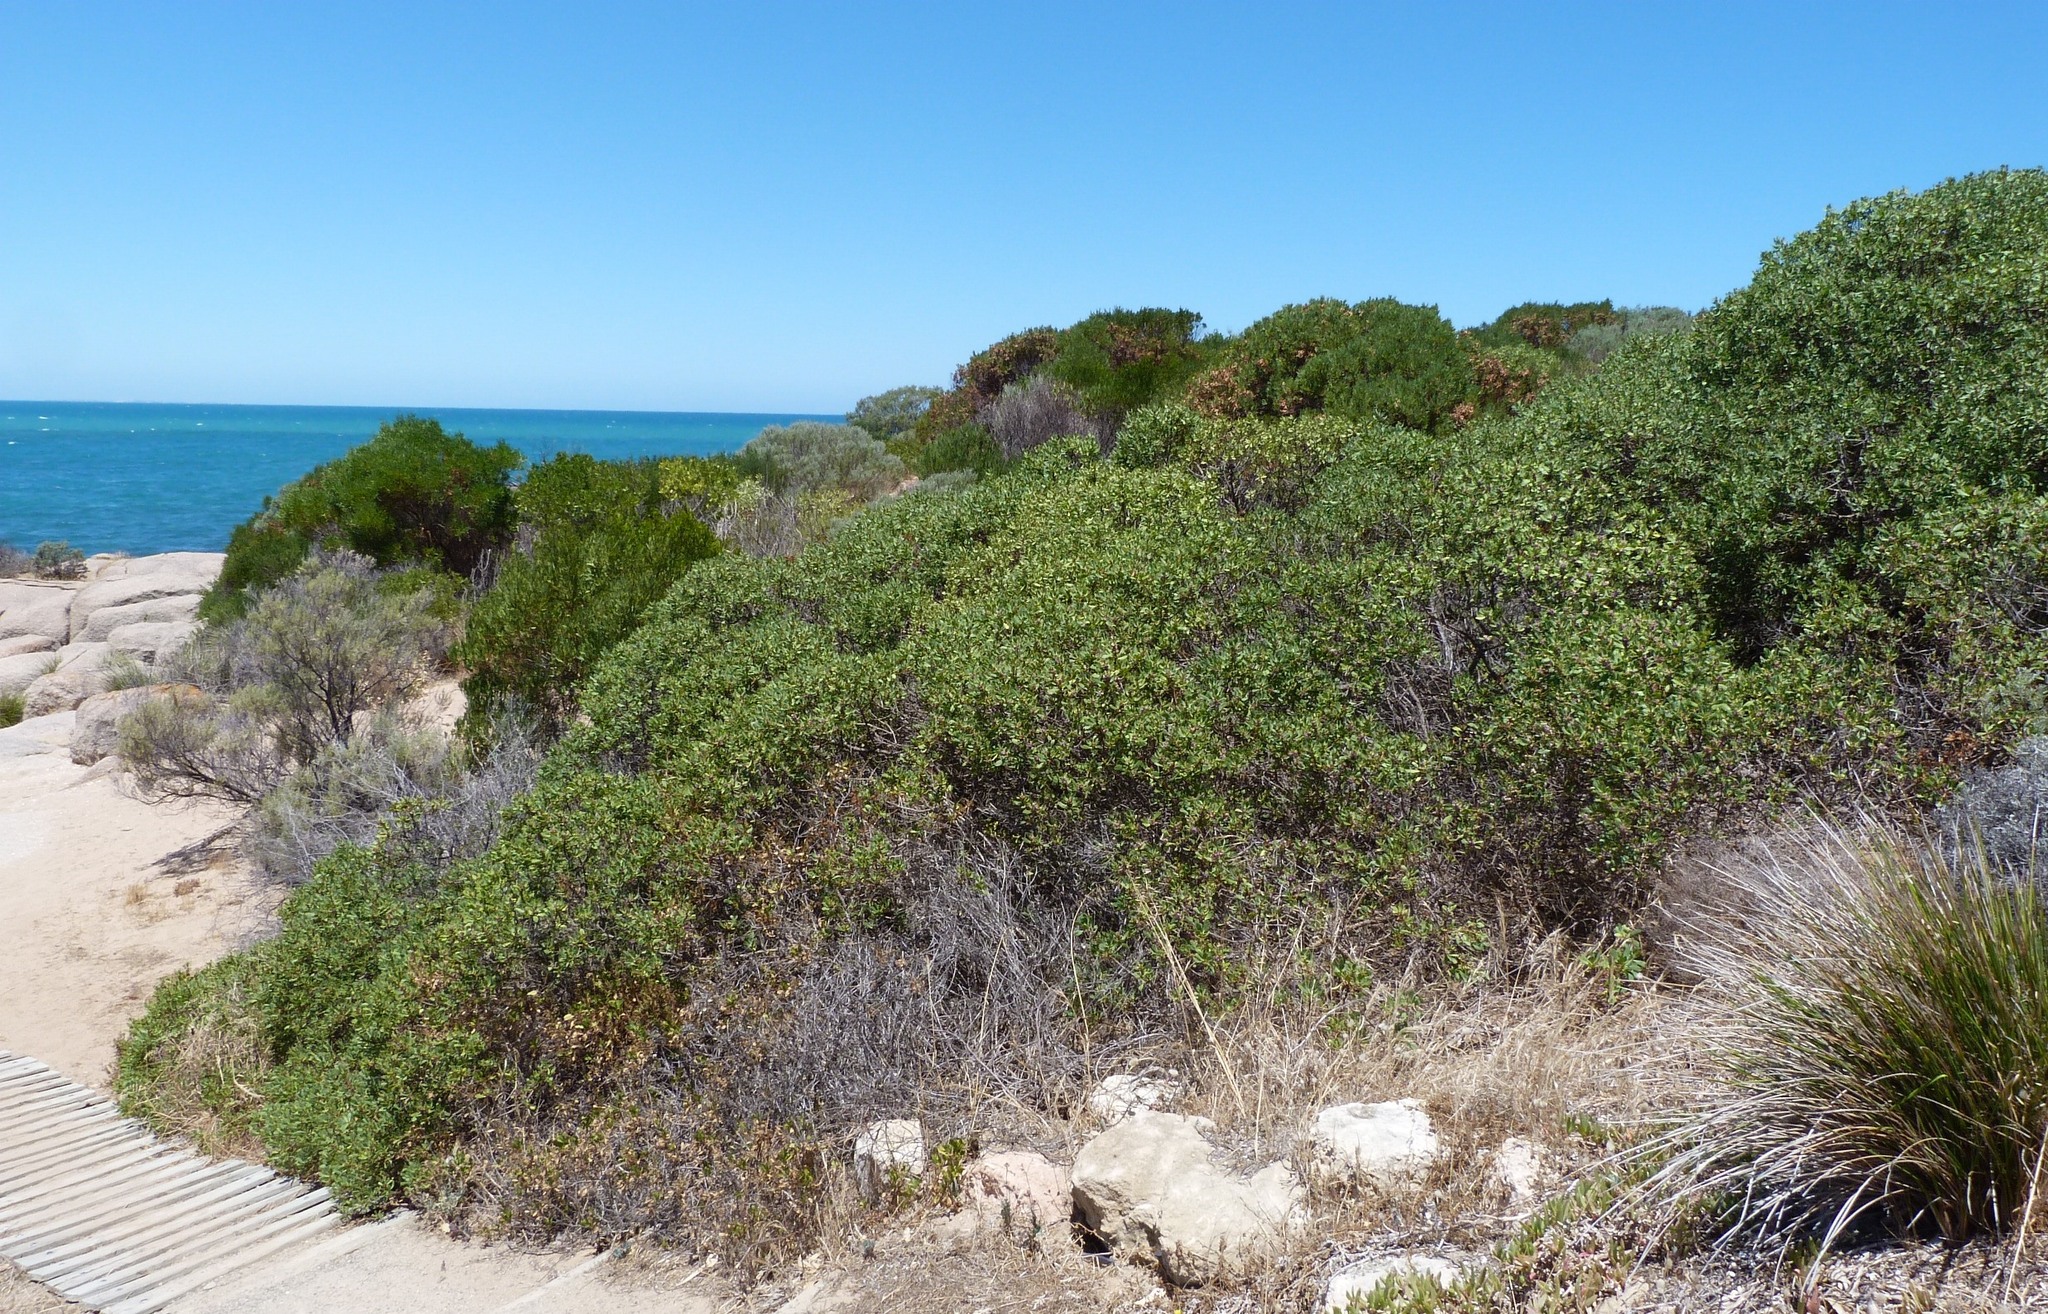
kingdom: Plantae
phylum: Tracheophyta
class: Magnoliopsida
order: Lamiales
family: Scrophulariaceae
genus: Myoporum
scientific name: Myoporum insulare
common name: Common boobialla
